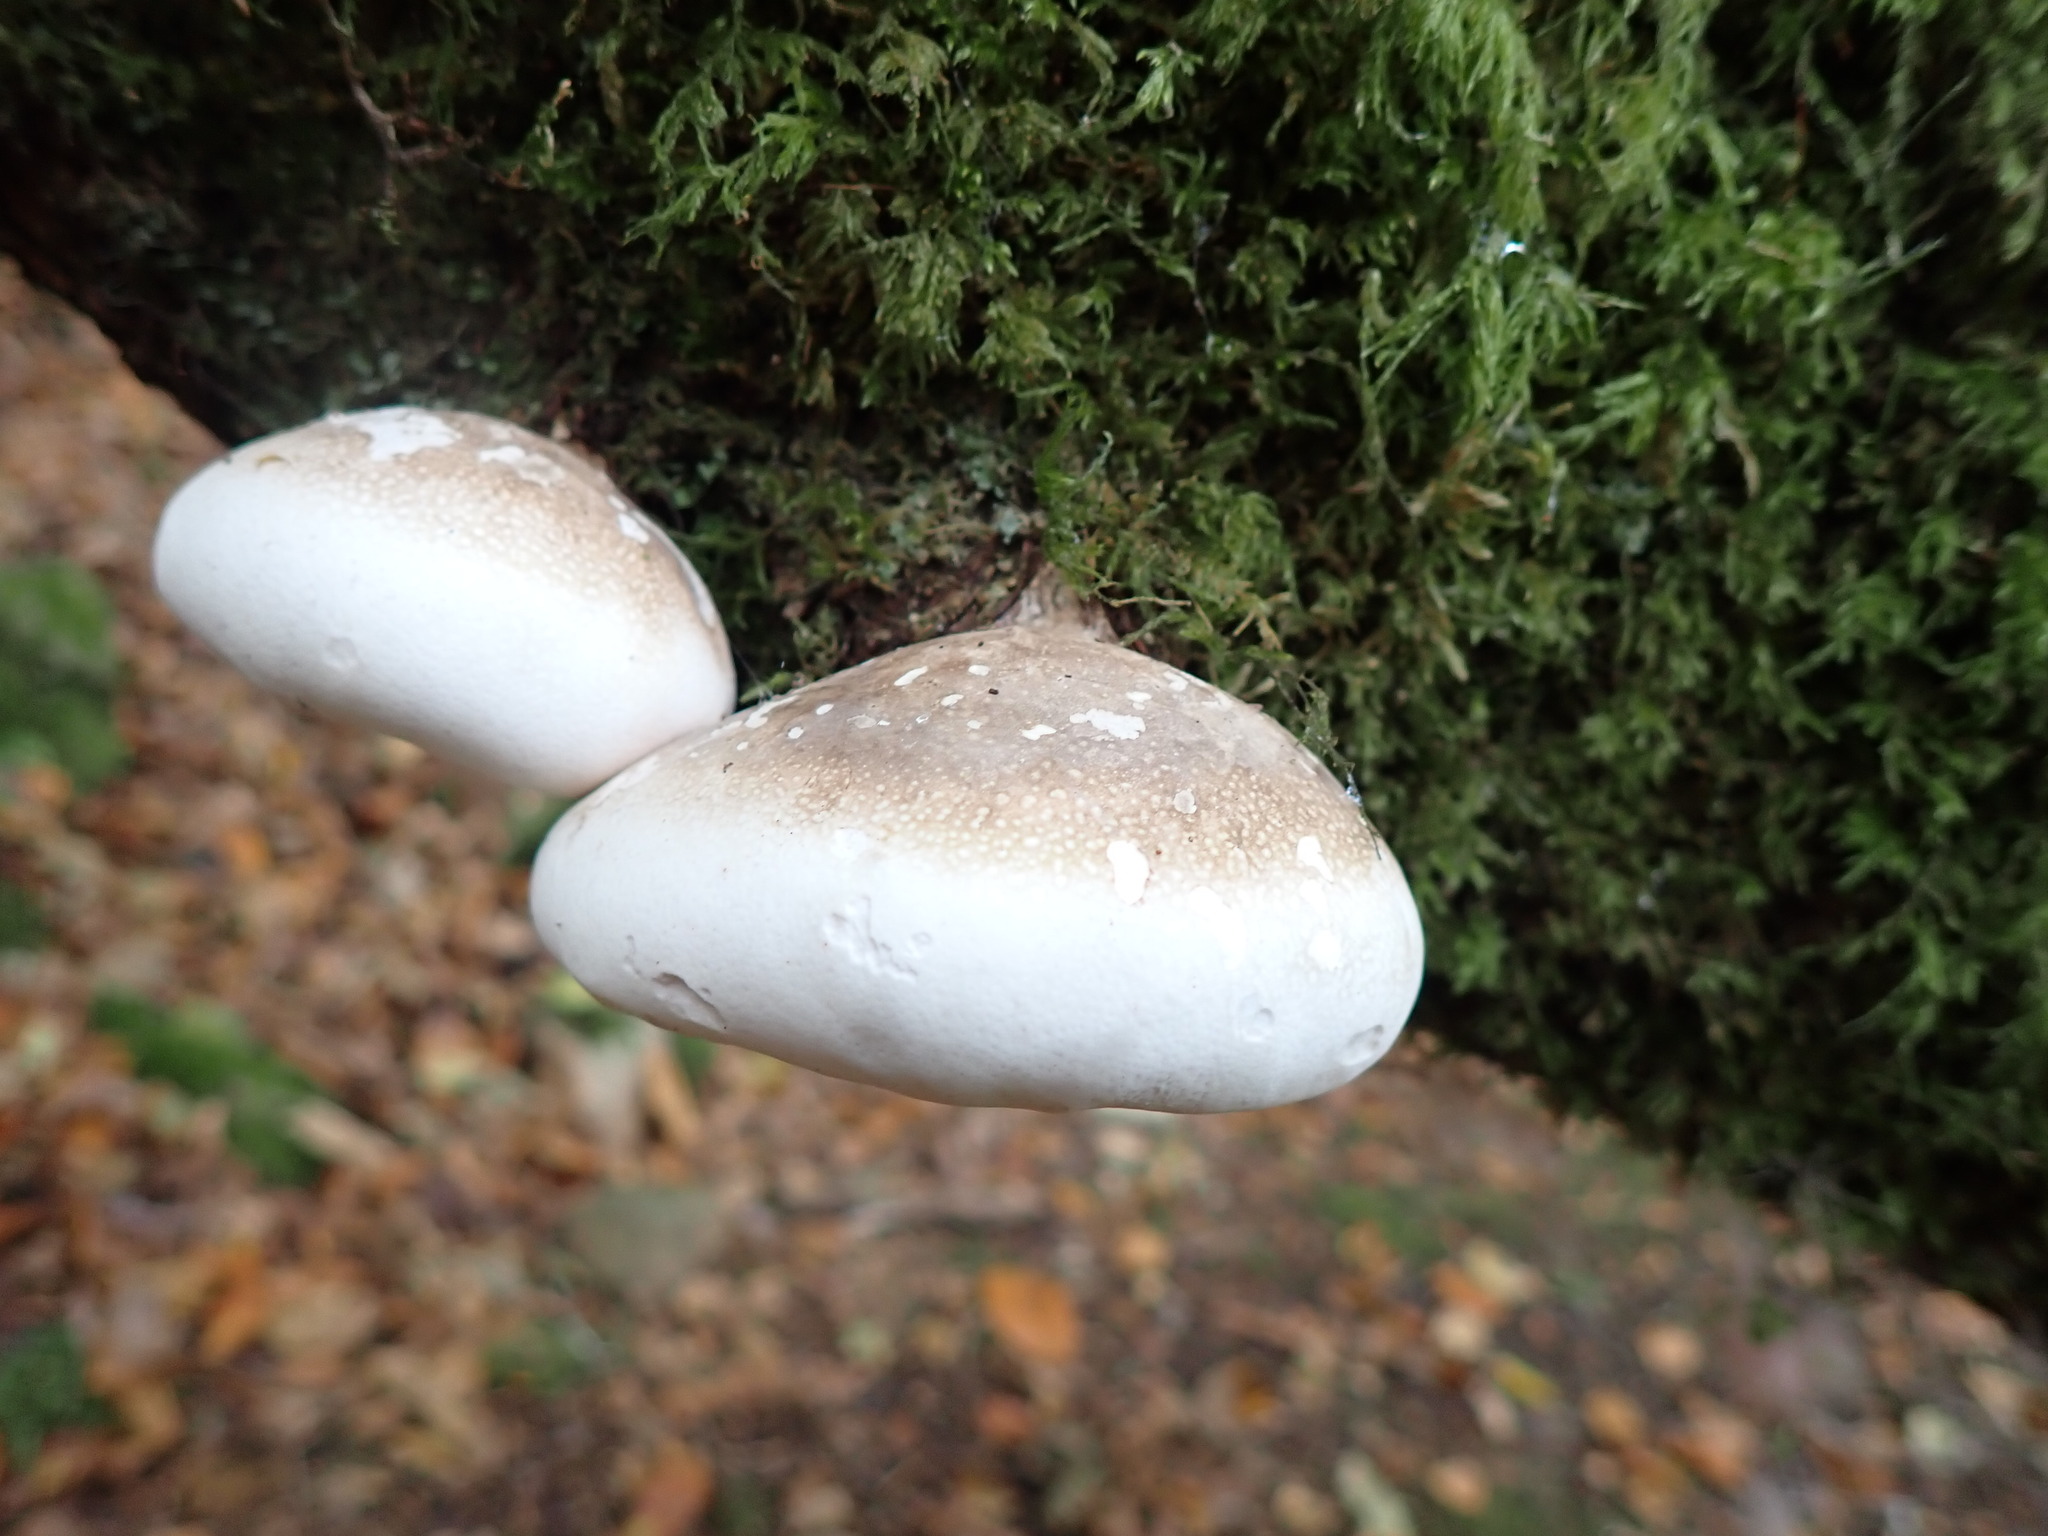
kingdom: Fungi
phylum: Basidiomycota
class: Agaricomycetes
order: Polyporales
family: Fomitopsidaceae
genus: Fomitopsis
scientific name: Fomitopsis betulina
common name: Birch polypore
